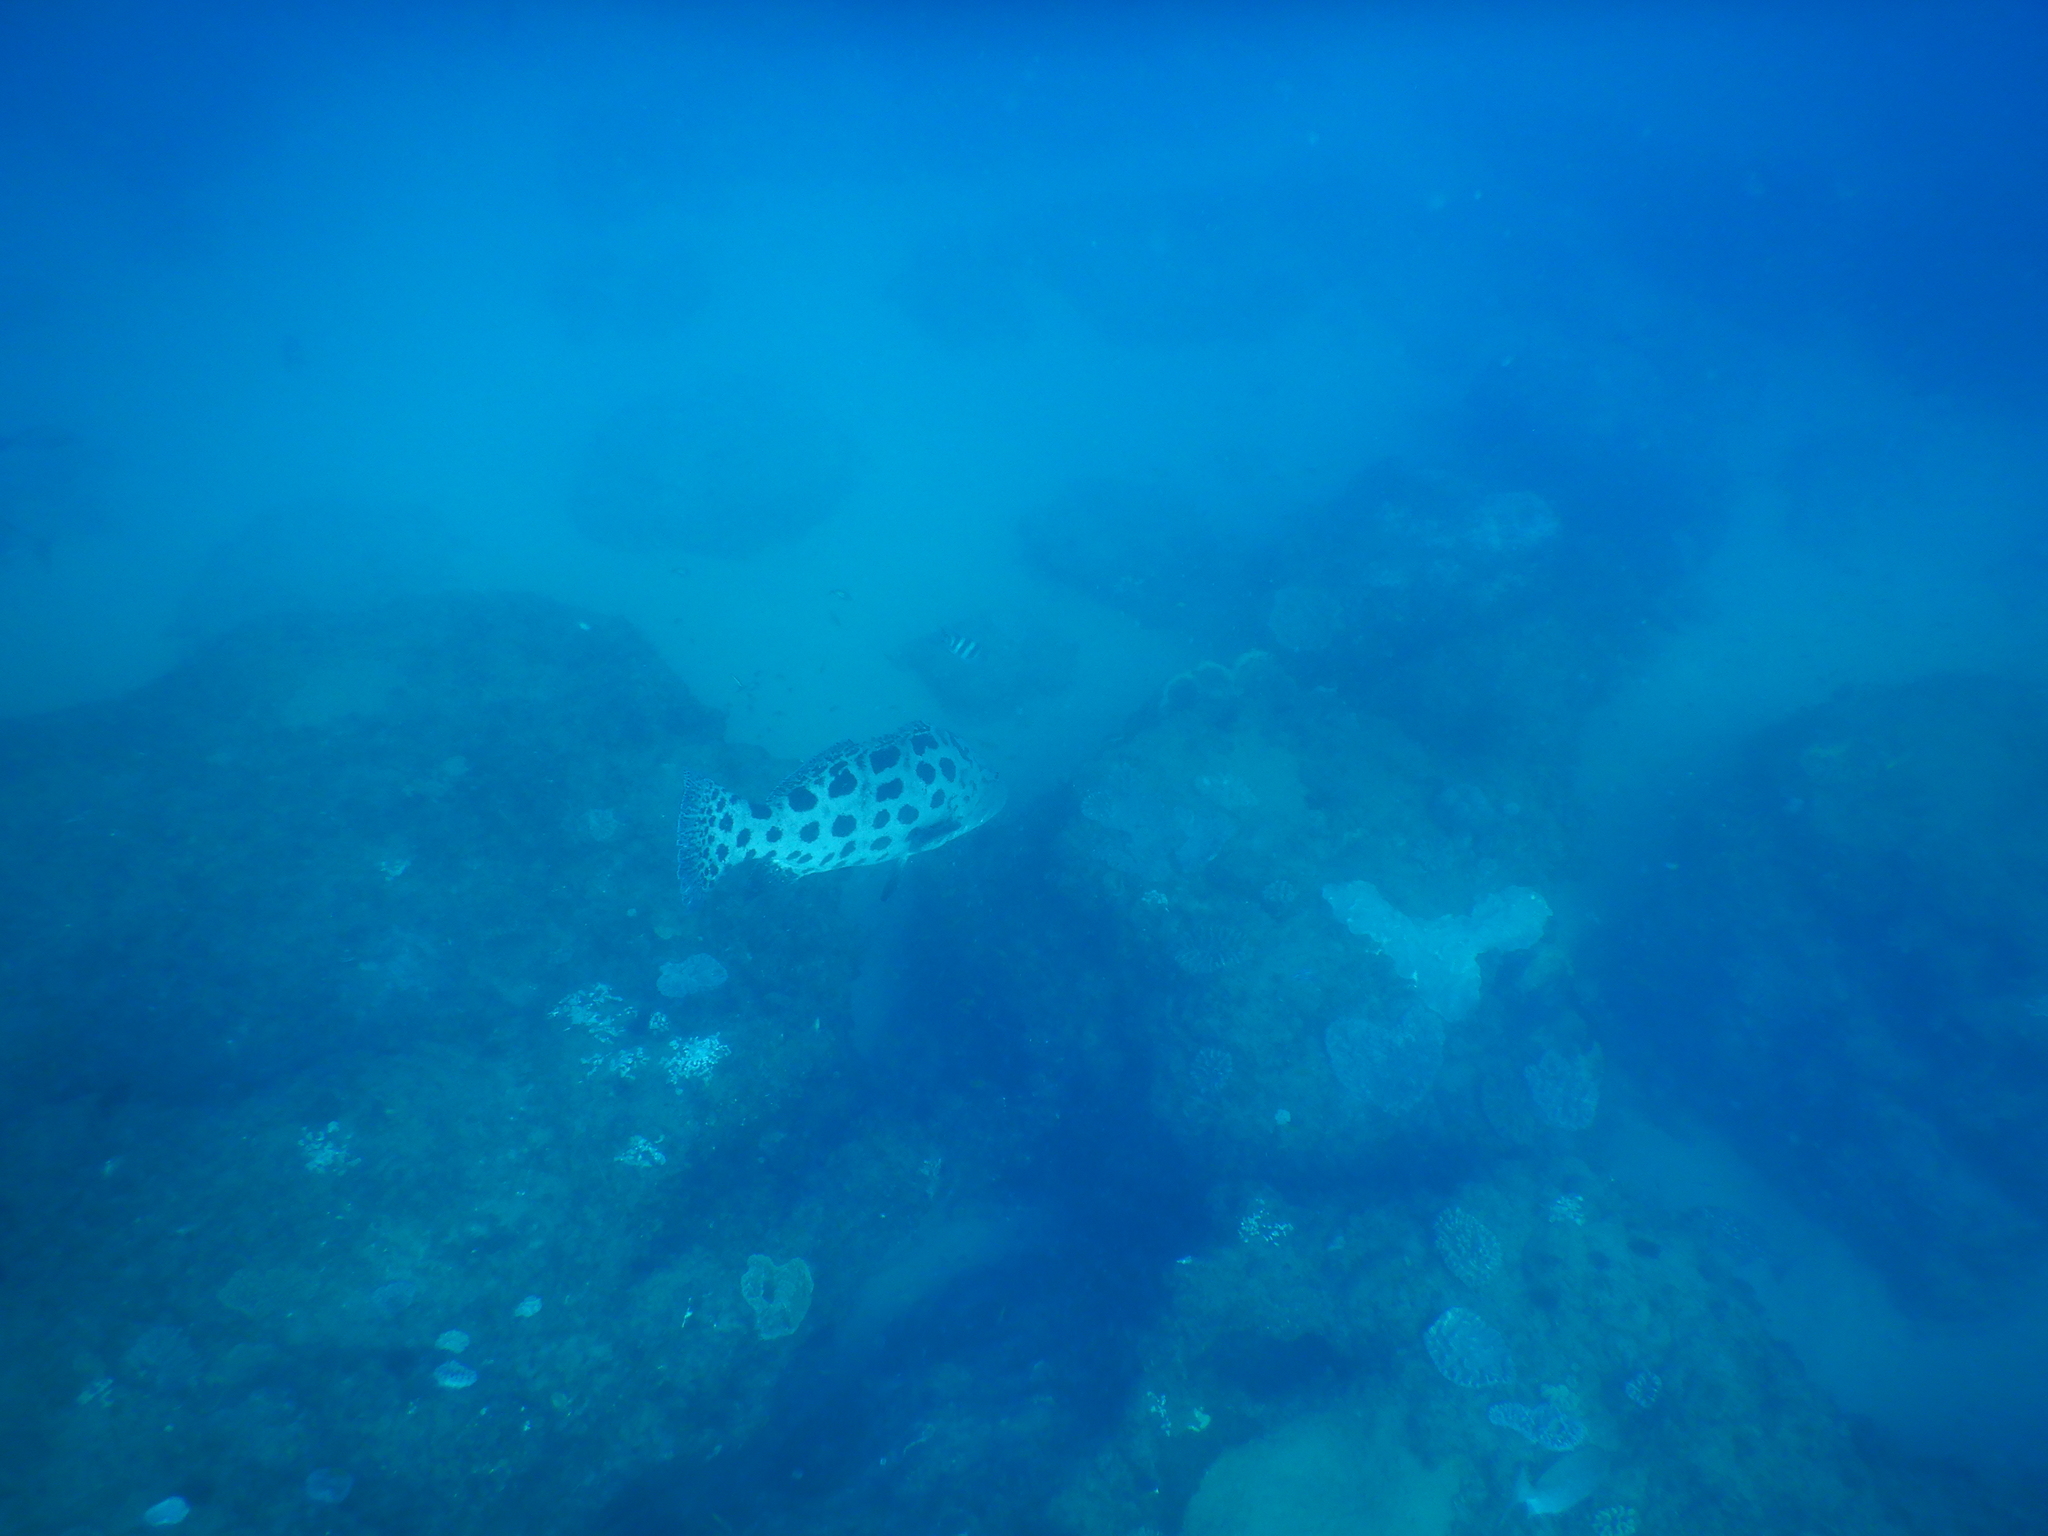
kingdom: Animalia
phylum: Chordata
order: Perciformes
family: Serranidae
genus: Epinephelus
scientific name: Epinephelus tukula
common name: Potato cod
